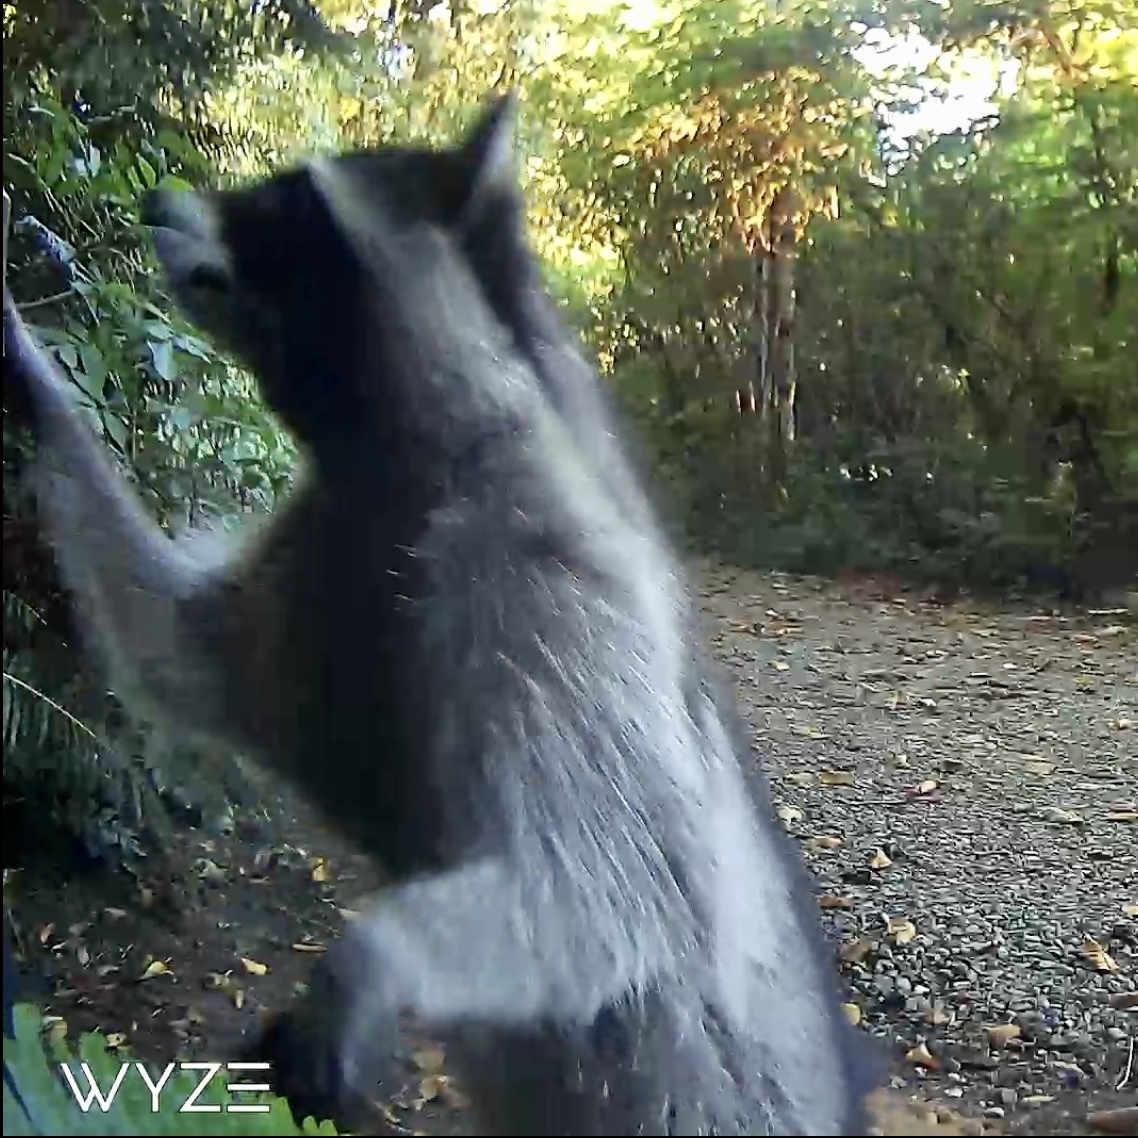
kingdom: Animalia
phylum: Chordata
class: Mammalia
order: Carnivora
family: Procyonidae
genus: Procyon
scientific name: Procyon lotor
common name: Raccoon
